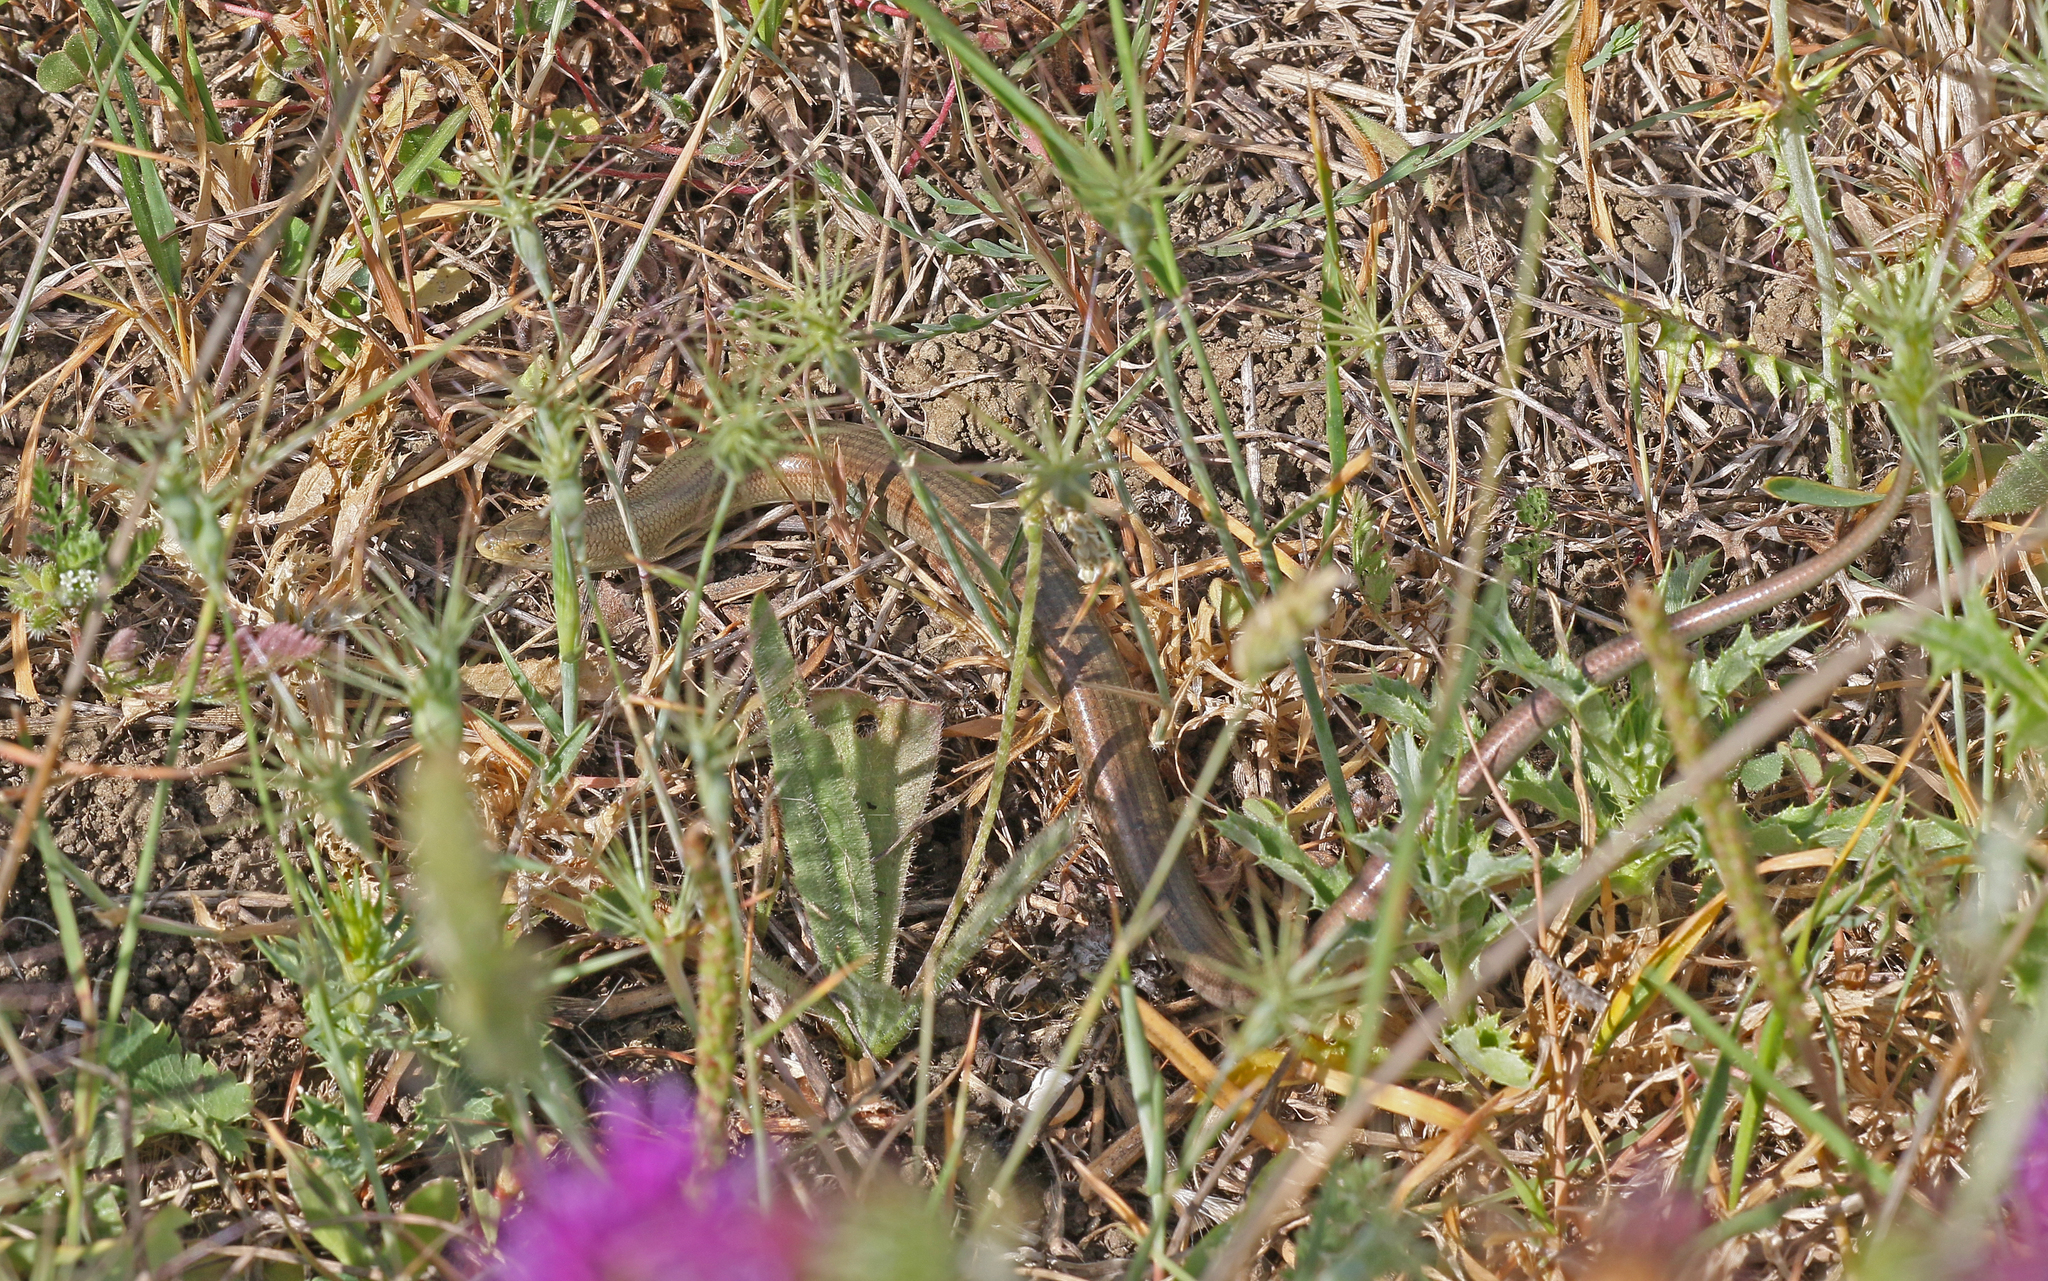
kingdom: Animalia
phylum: Chordata
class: Squamata
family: Scincidae
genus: Chalcides
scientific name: Chalcides striatus
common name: Western (or iberian) three-toed skink
